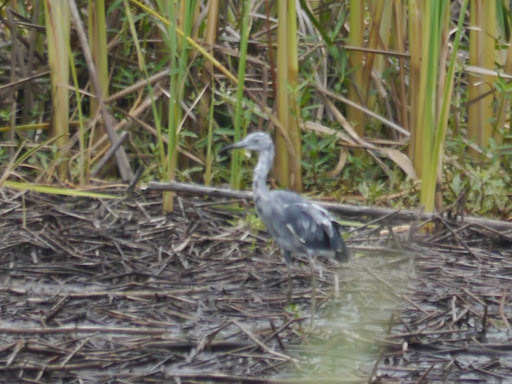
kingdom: Animalia
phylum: Chordata
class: Aves
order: Pelecaniformes
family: Ardeidae
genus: Egretta
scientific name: Egretta caerulea
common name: Little blue heron
